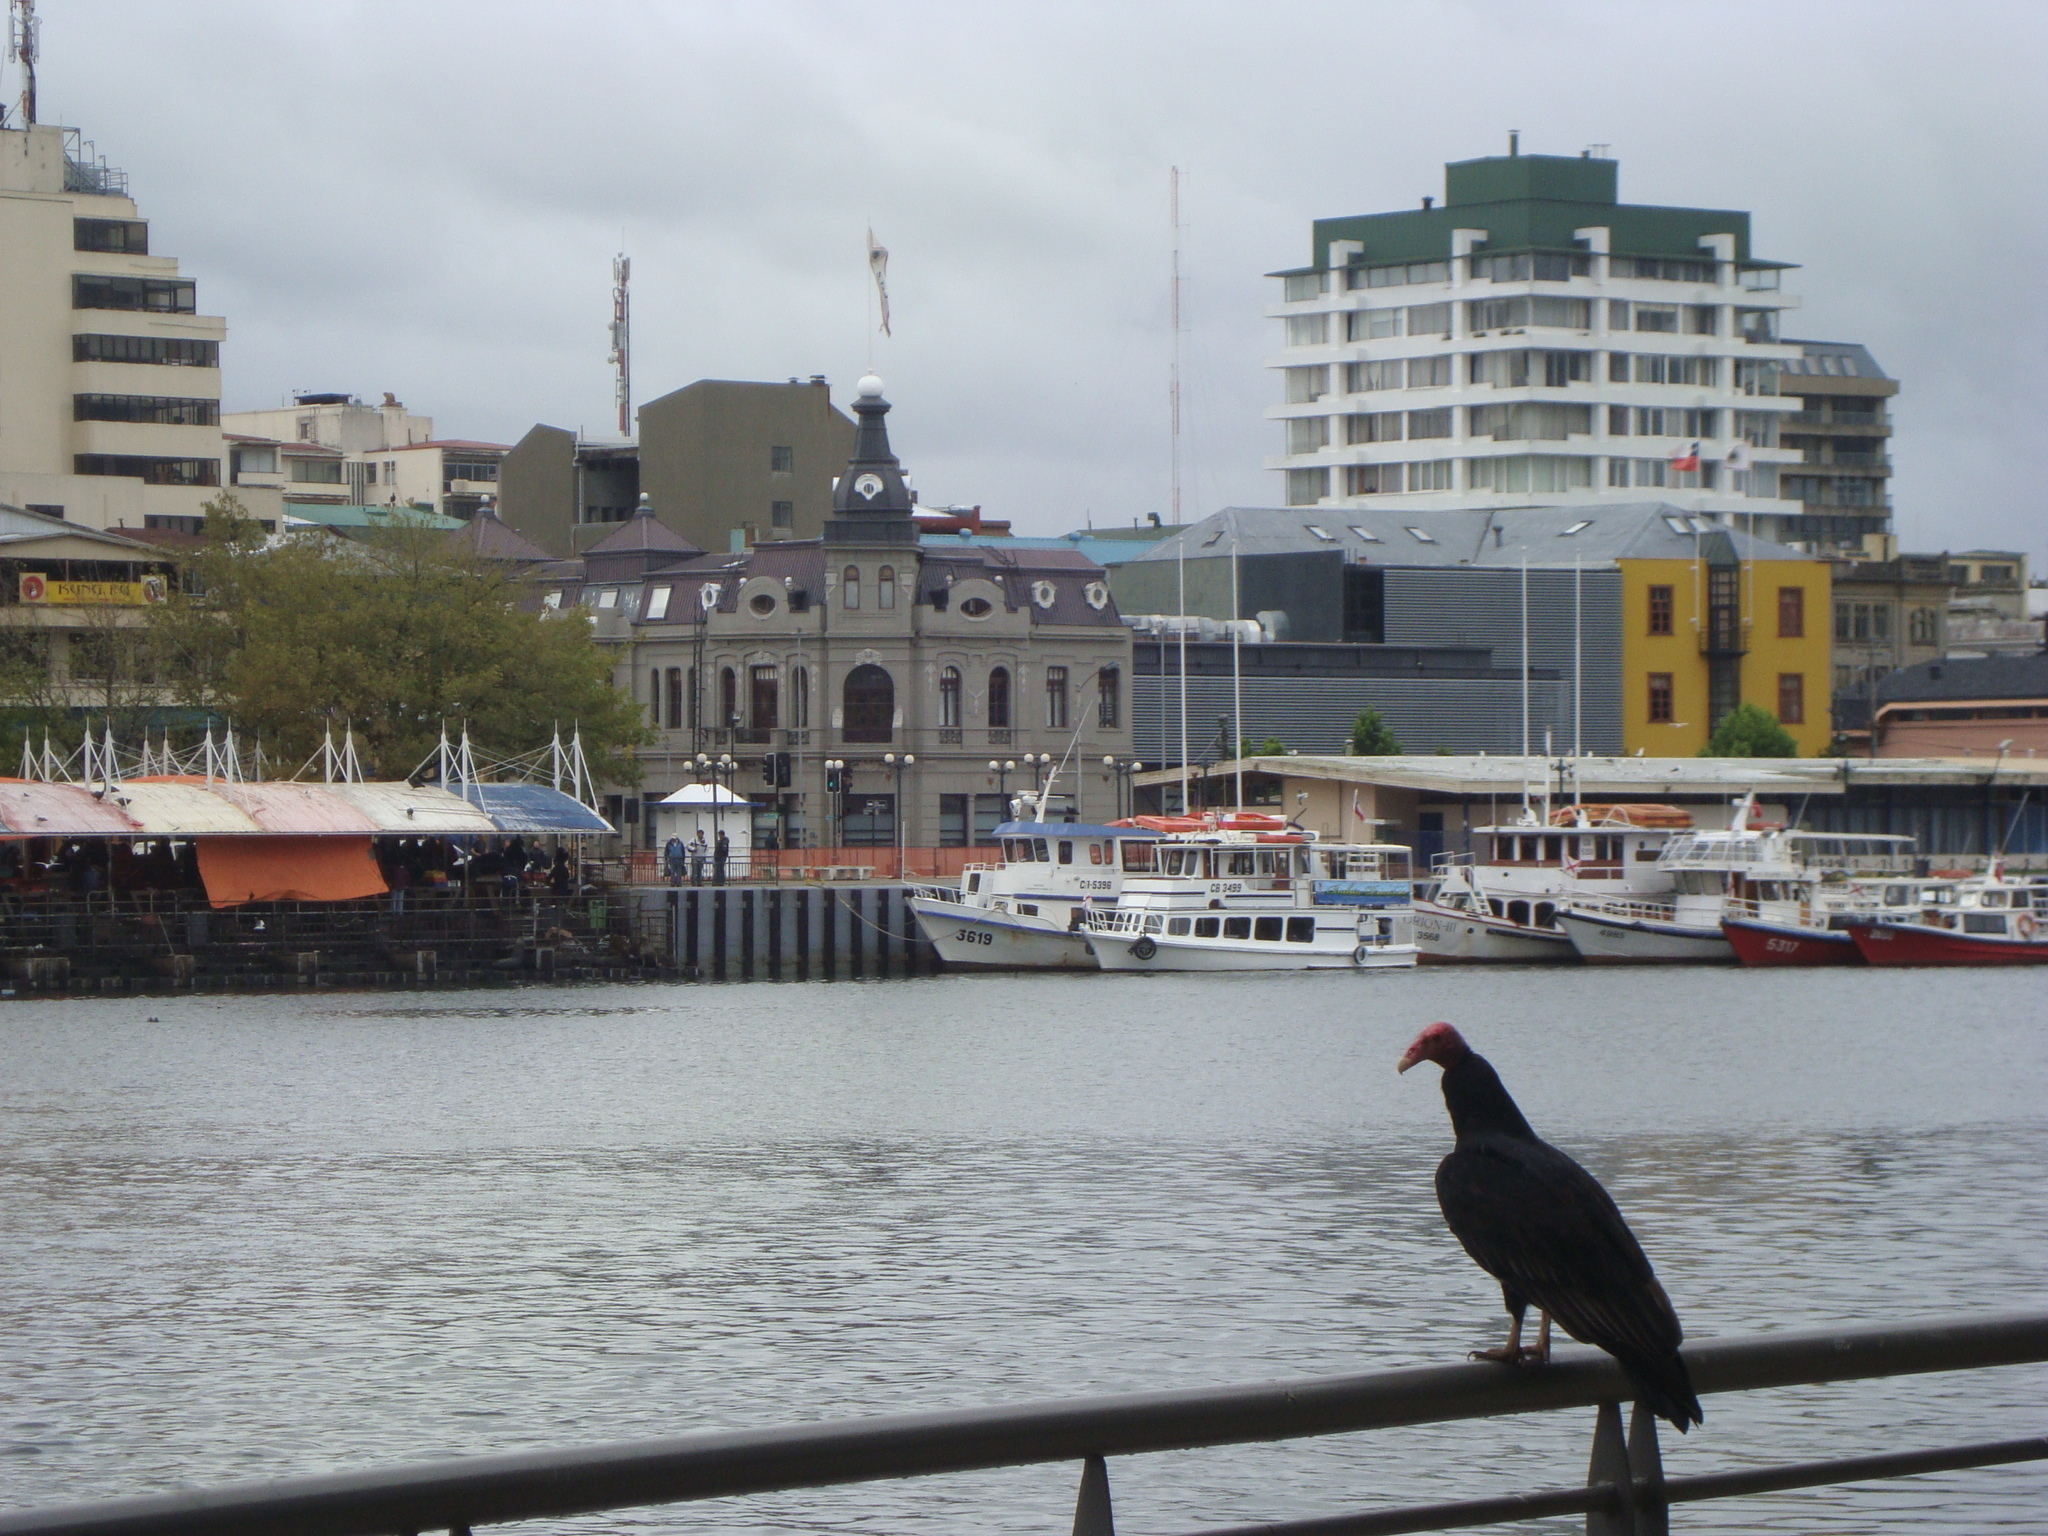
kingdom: Animalia
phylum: Chordata
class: Aves
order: Accipitriformes
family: Cathartidae
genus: Cathartes
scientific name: Cathartes aura
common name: Turkey vulture
